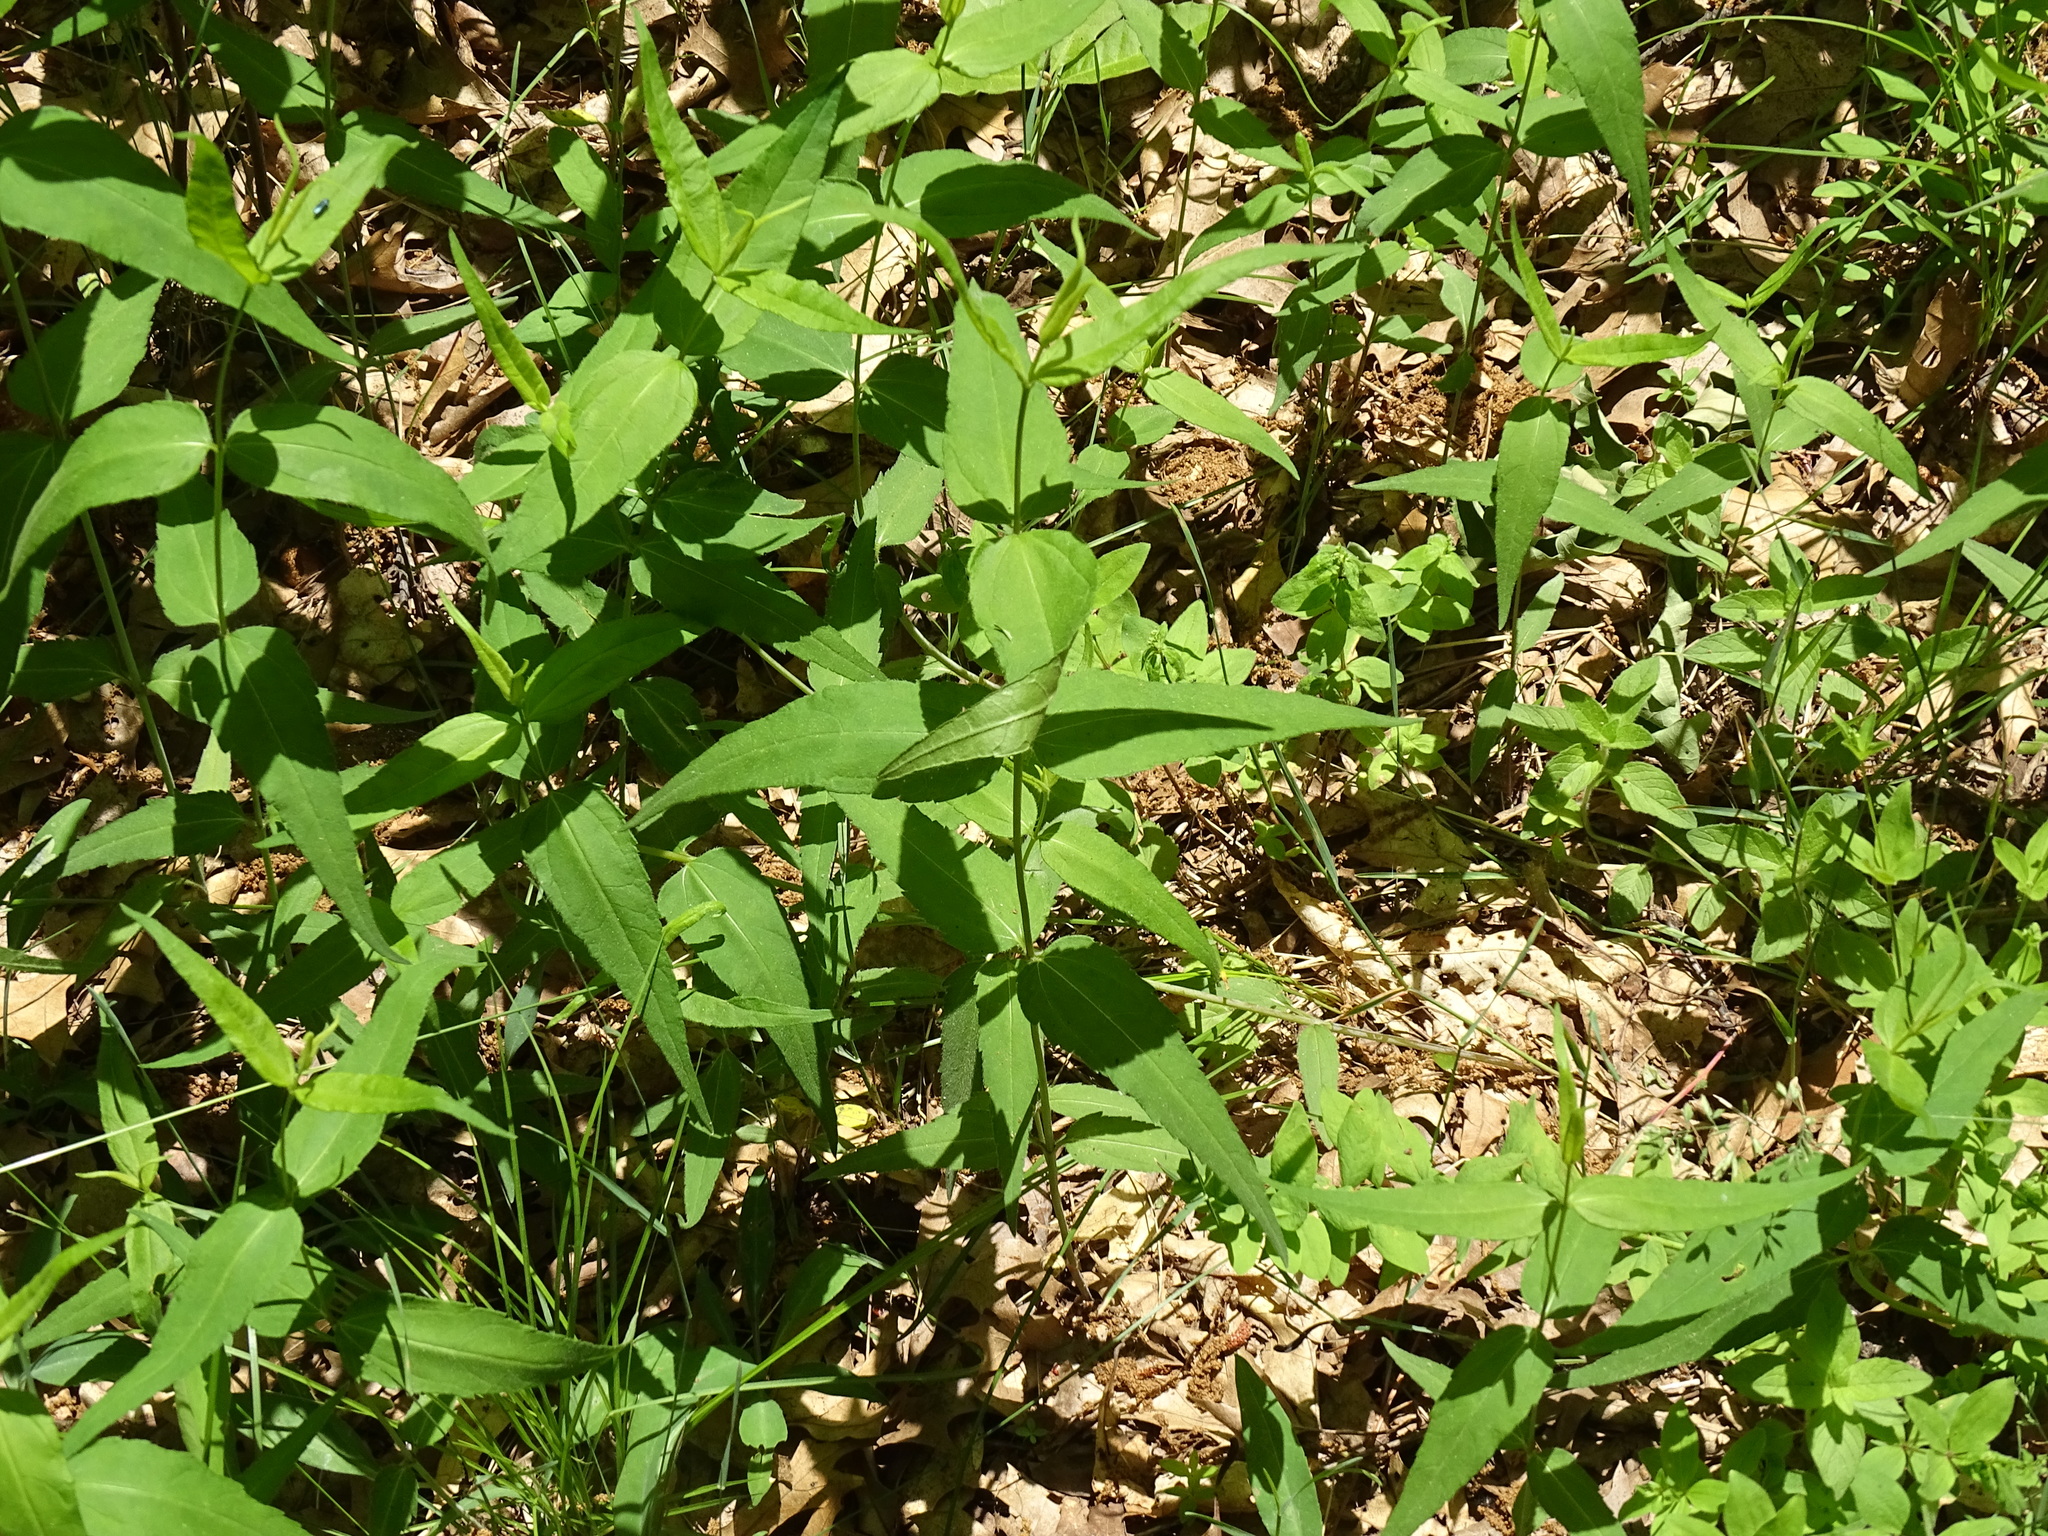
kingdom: Plantae
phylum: Tracheophyta
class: Magnoliopsida
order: Asterales
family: Asteraceae
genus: Helianthus
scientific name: Helianthus divaricatus
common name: Divergent sunflower
